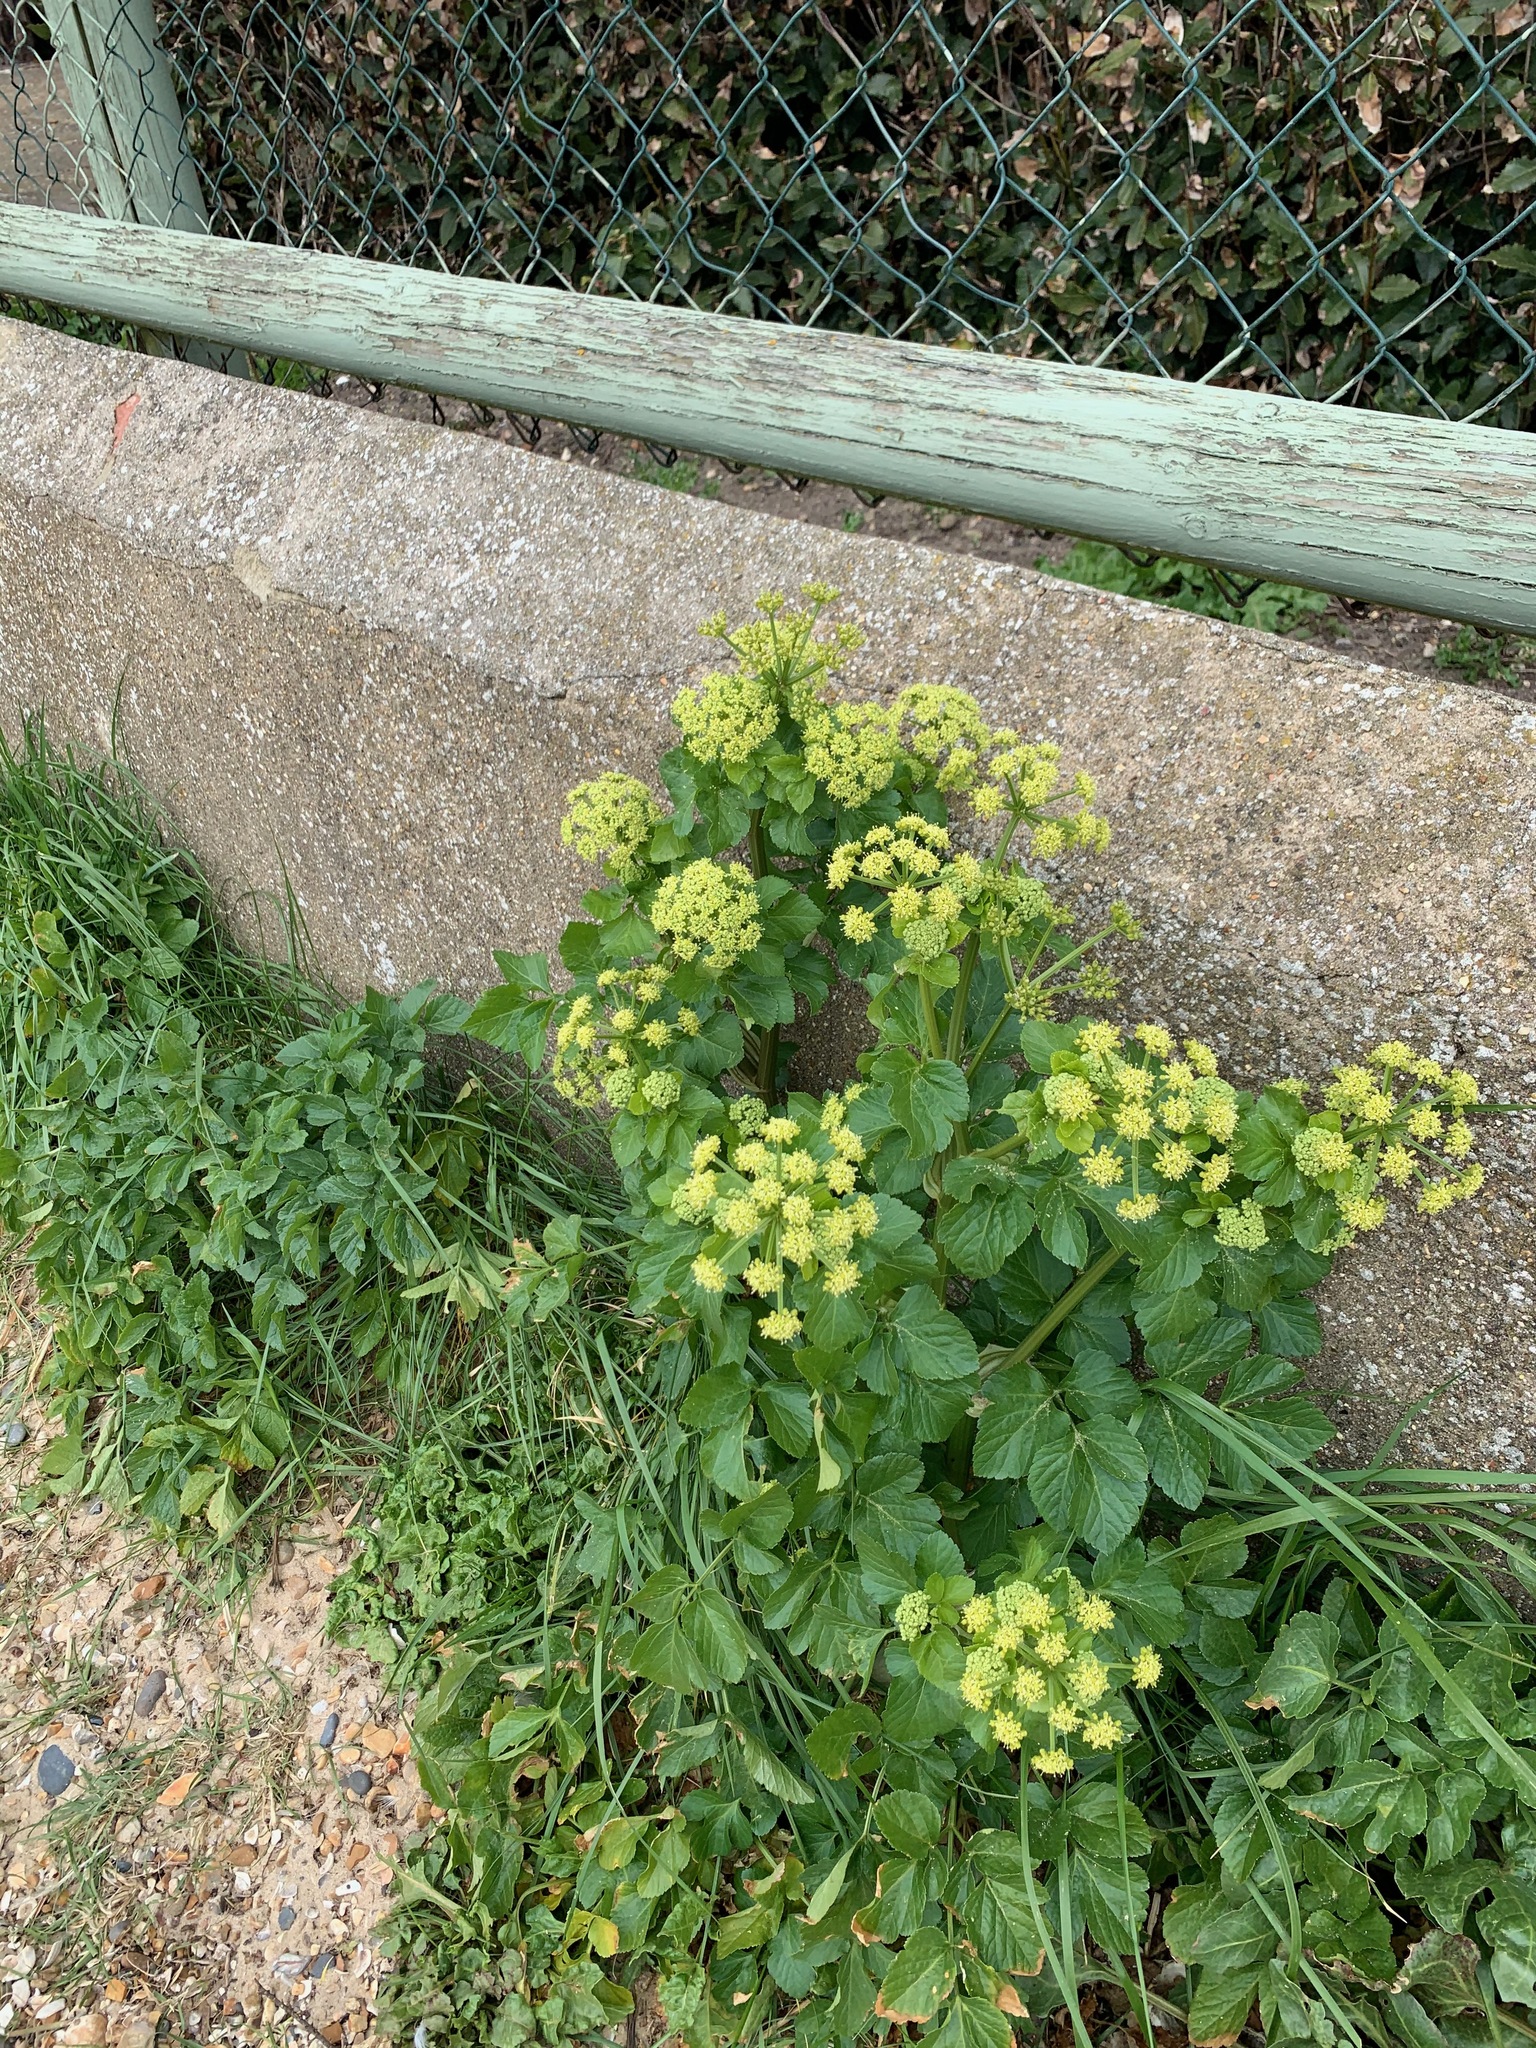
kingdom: Plantae
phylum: Tracheophyta
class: Magnoliopsida
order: Apiales
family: Apiaceae
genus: Smyrnium
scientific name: Smyrnium olusatrum
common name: Alexanders
